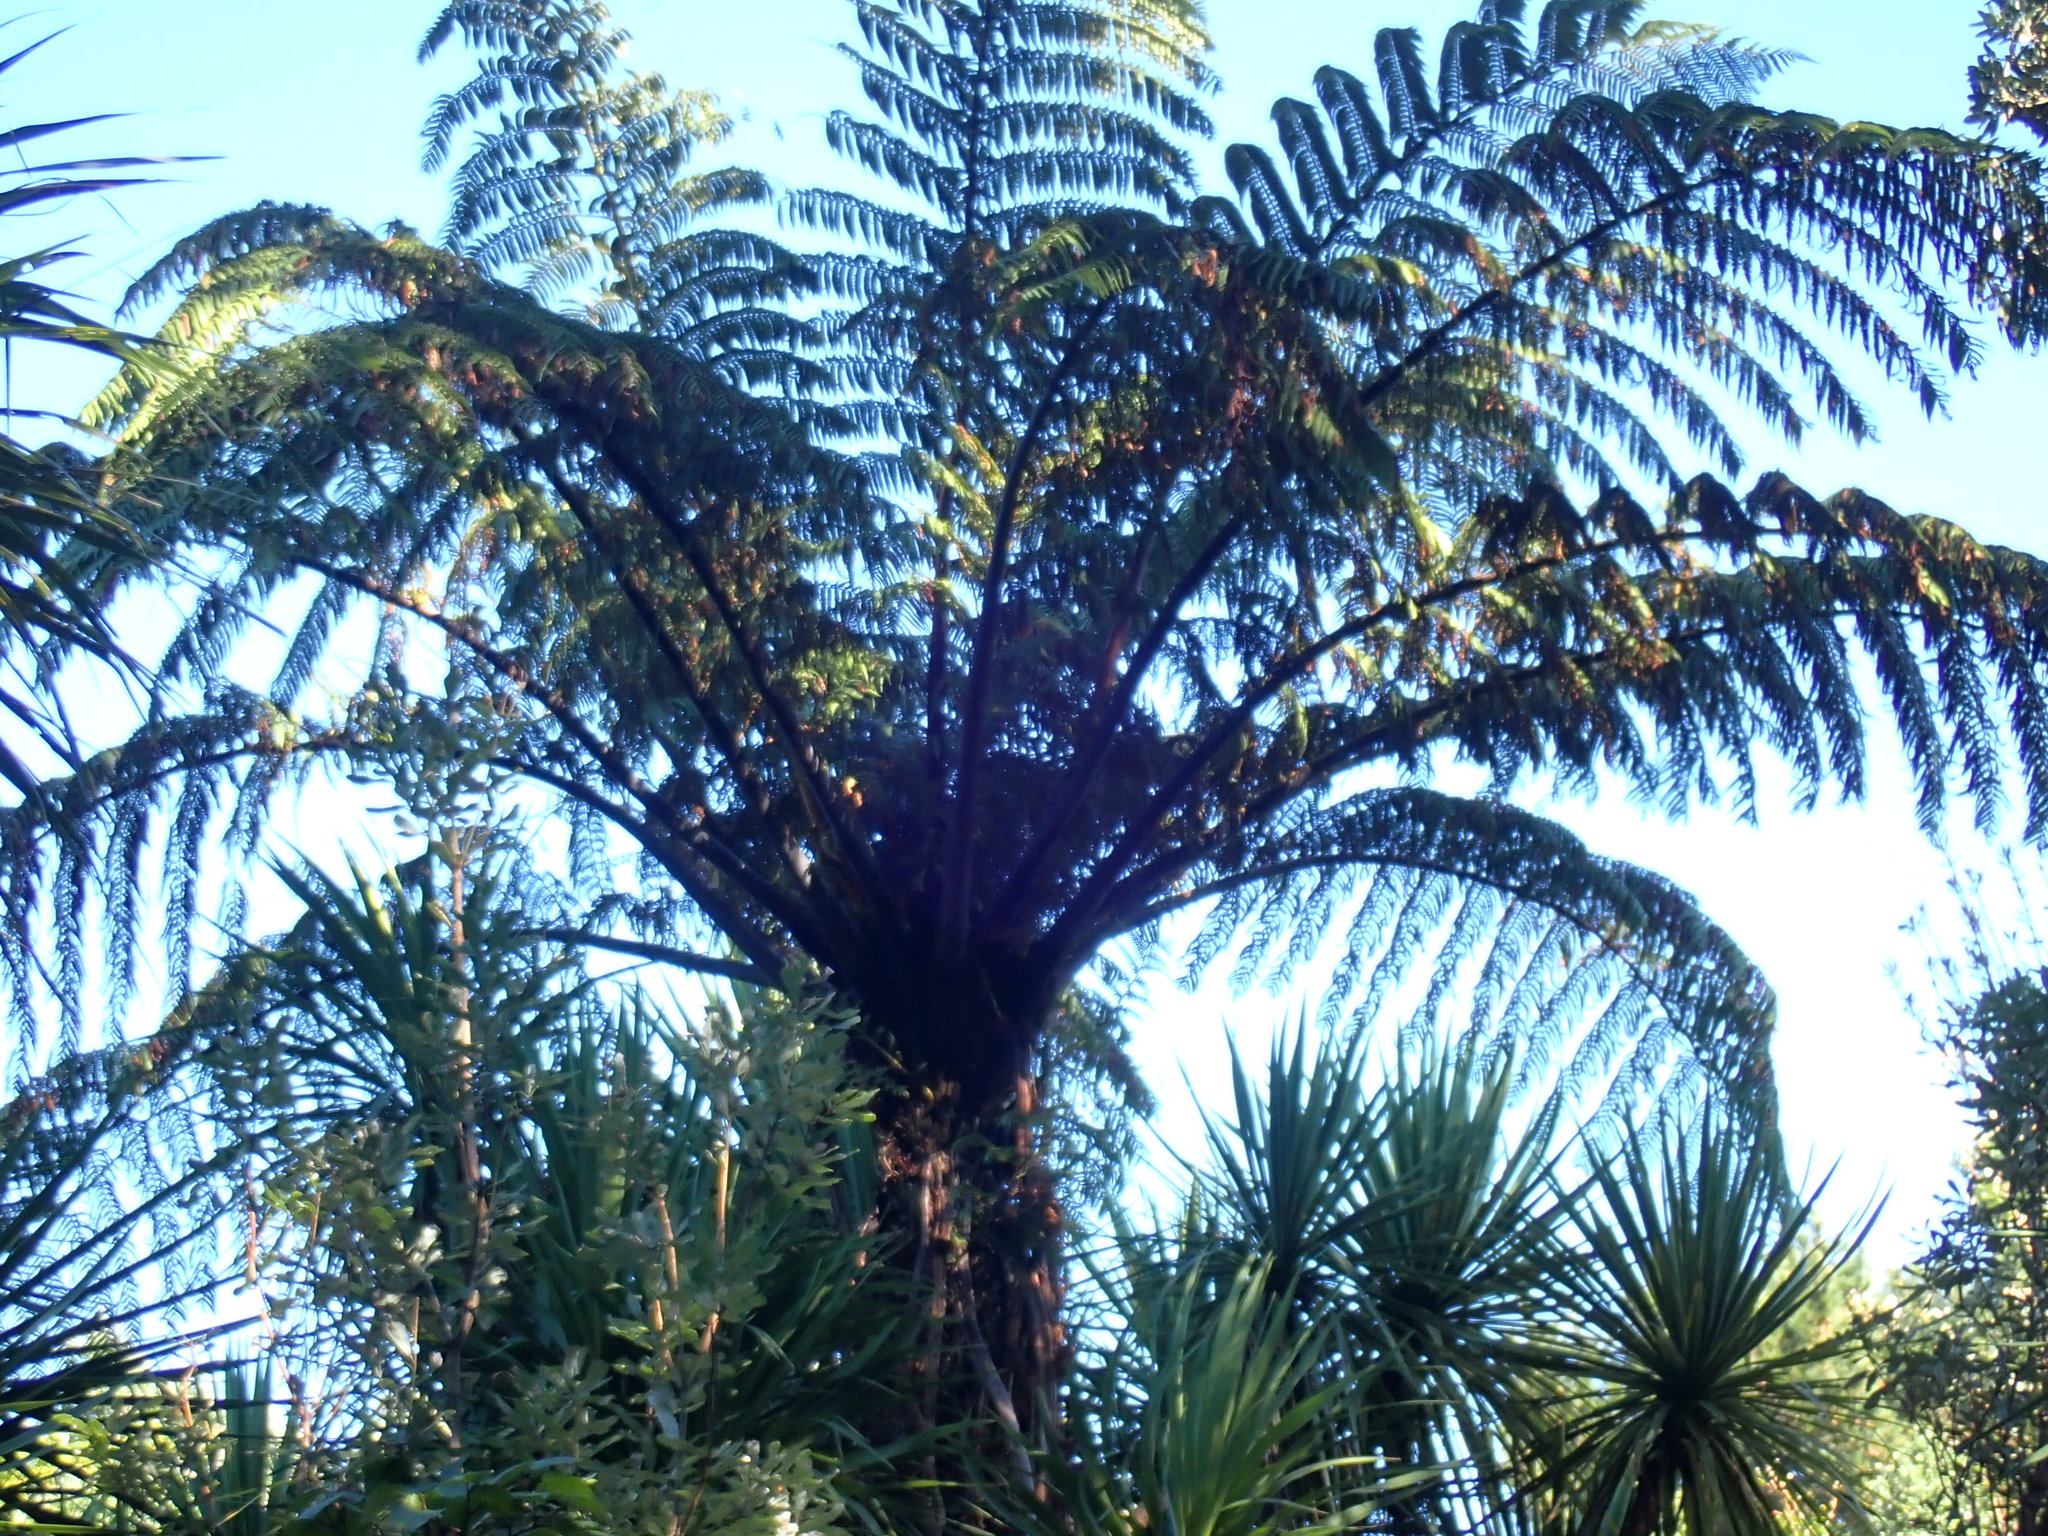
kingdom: Plantae
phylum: Tracheophyta
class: Polypodiopsida
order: Cyatheales
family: Cyatheaceae
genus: Sphaeropteris
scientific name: Sphaeropteris medullaris
